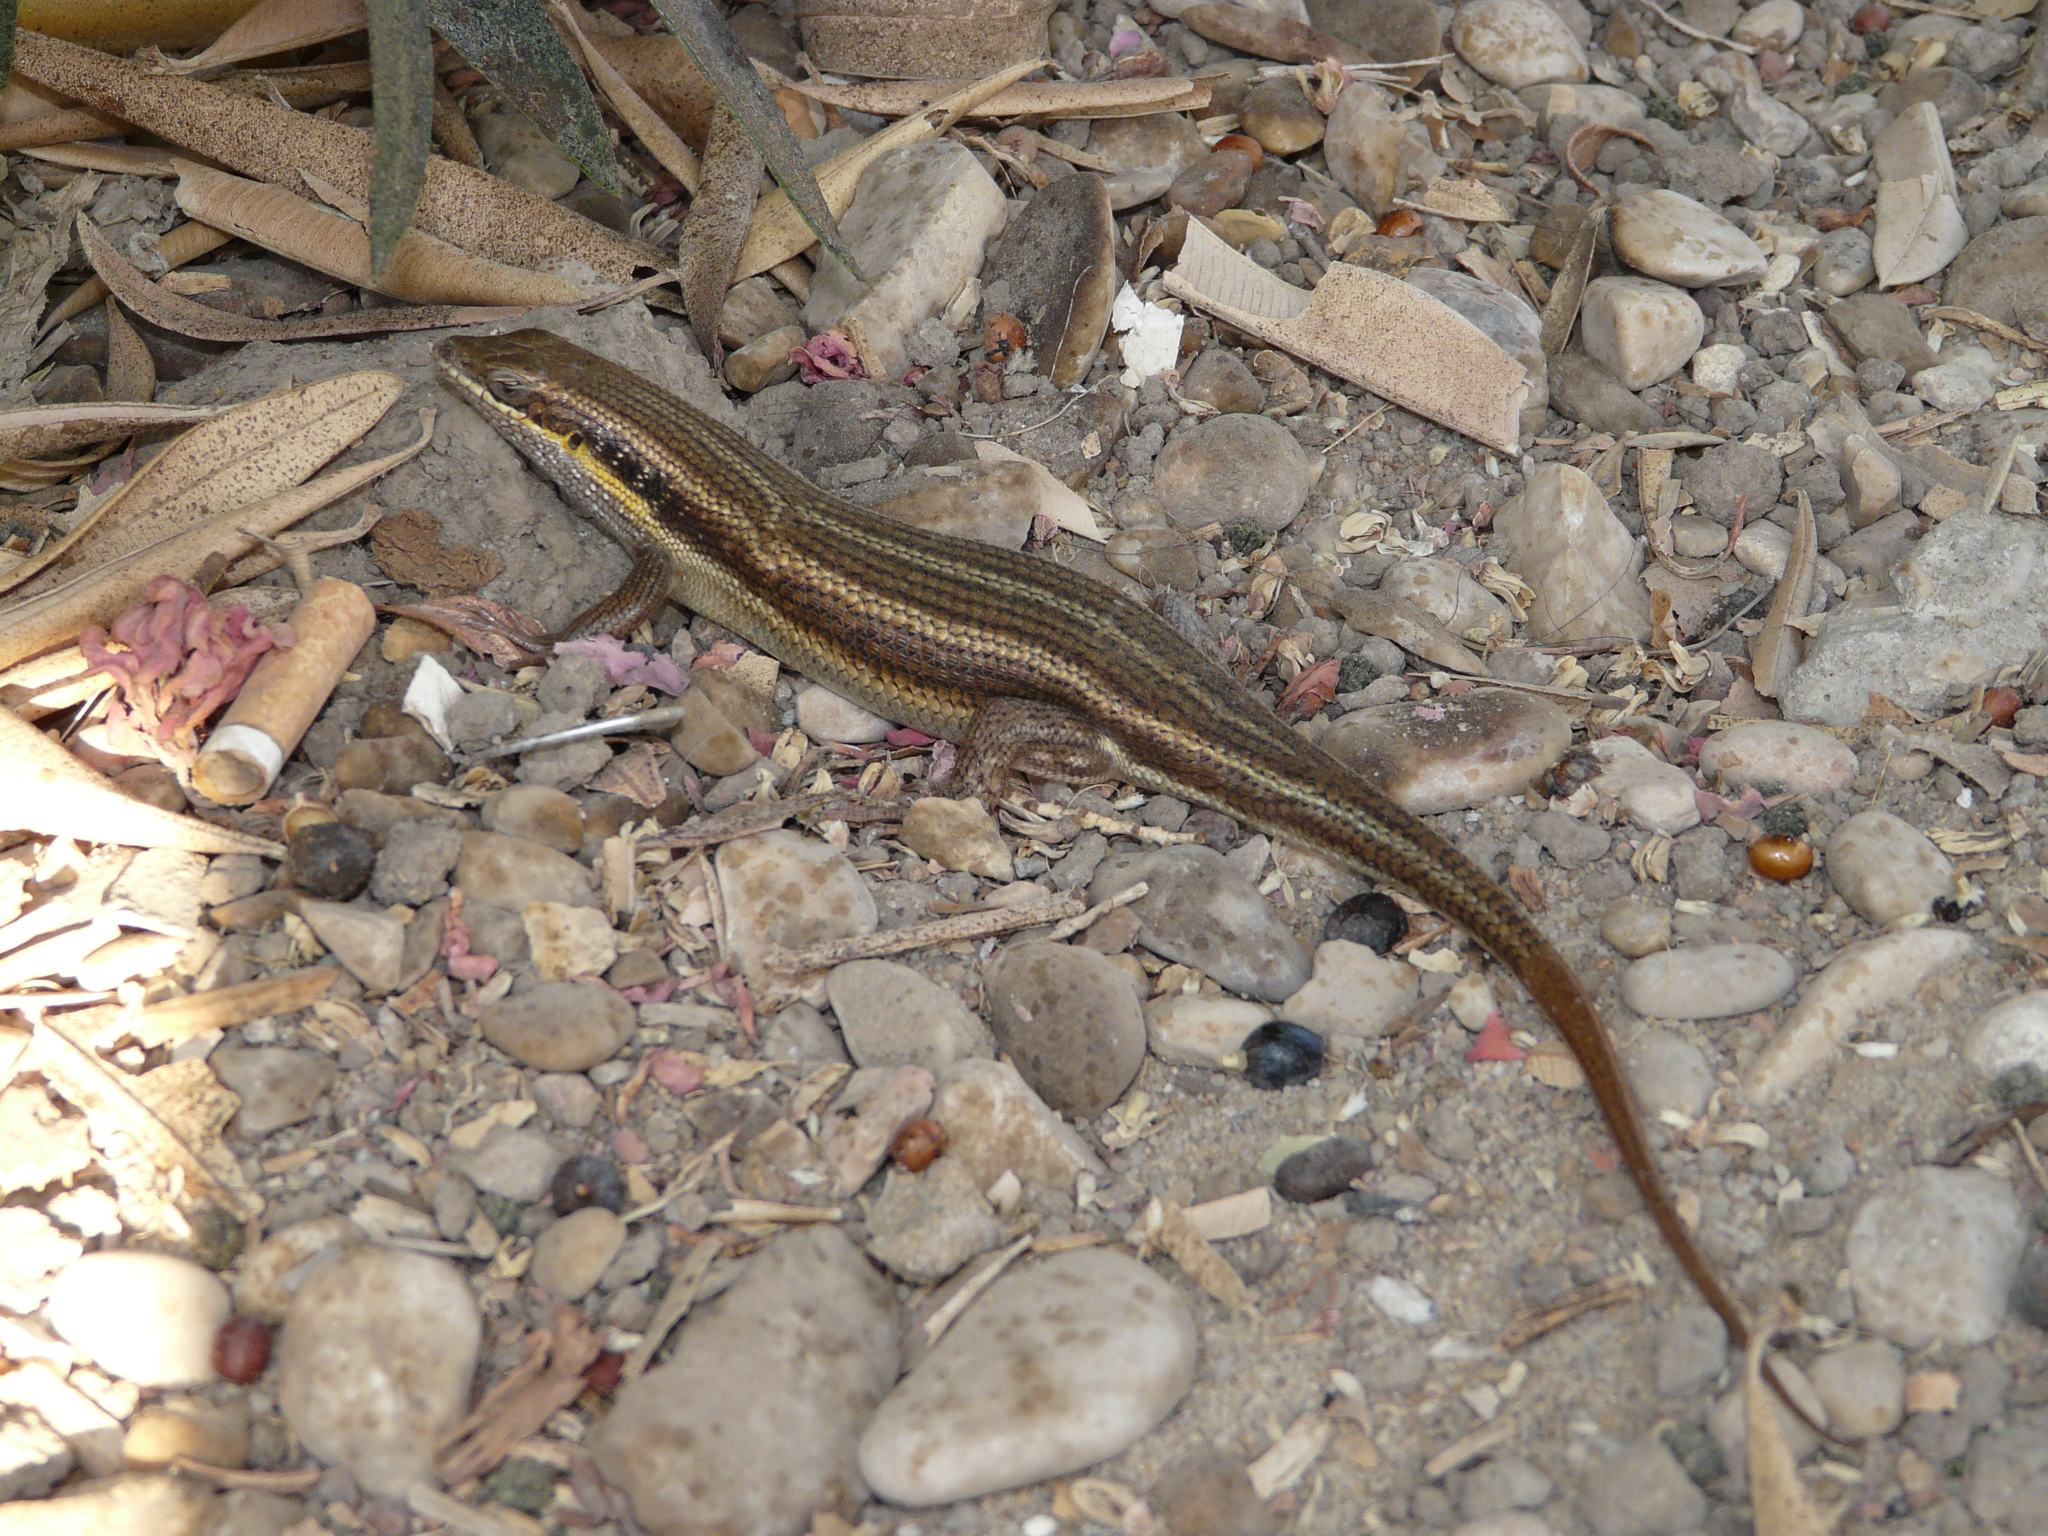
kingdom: Animalia
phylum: Chordata
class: Squamata
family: Scincidae
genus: Trachylepis
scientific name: Trachylepis quinquetaeniata
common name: African five-lined skink
